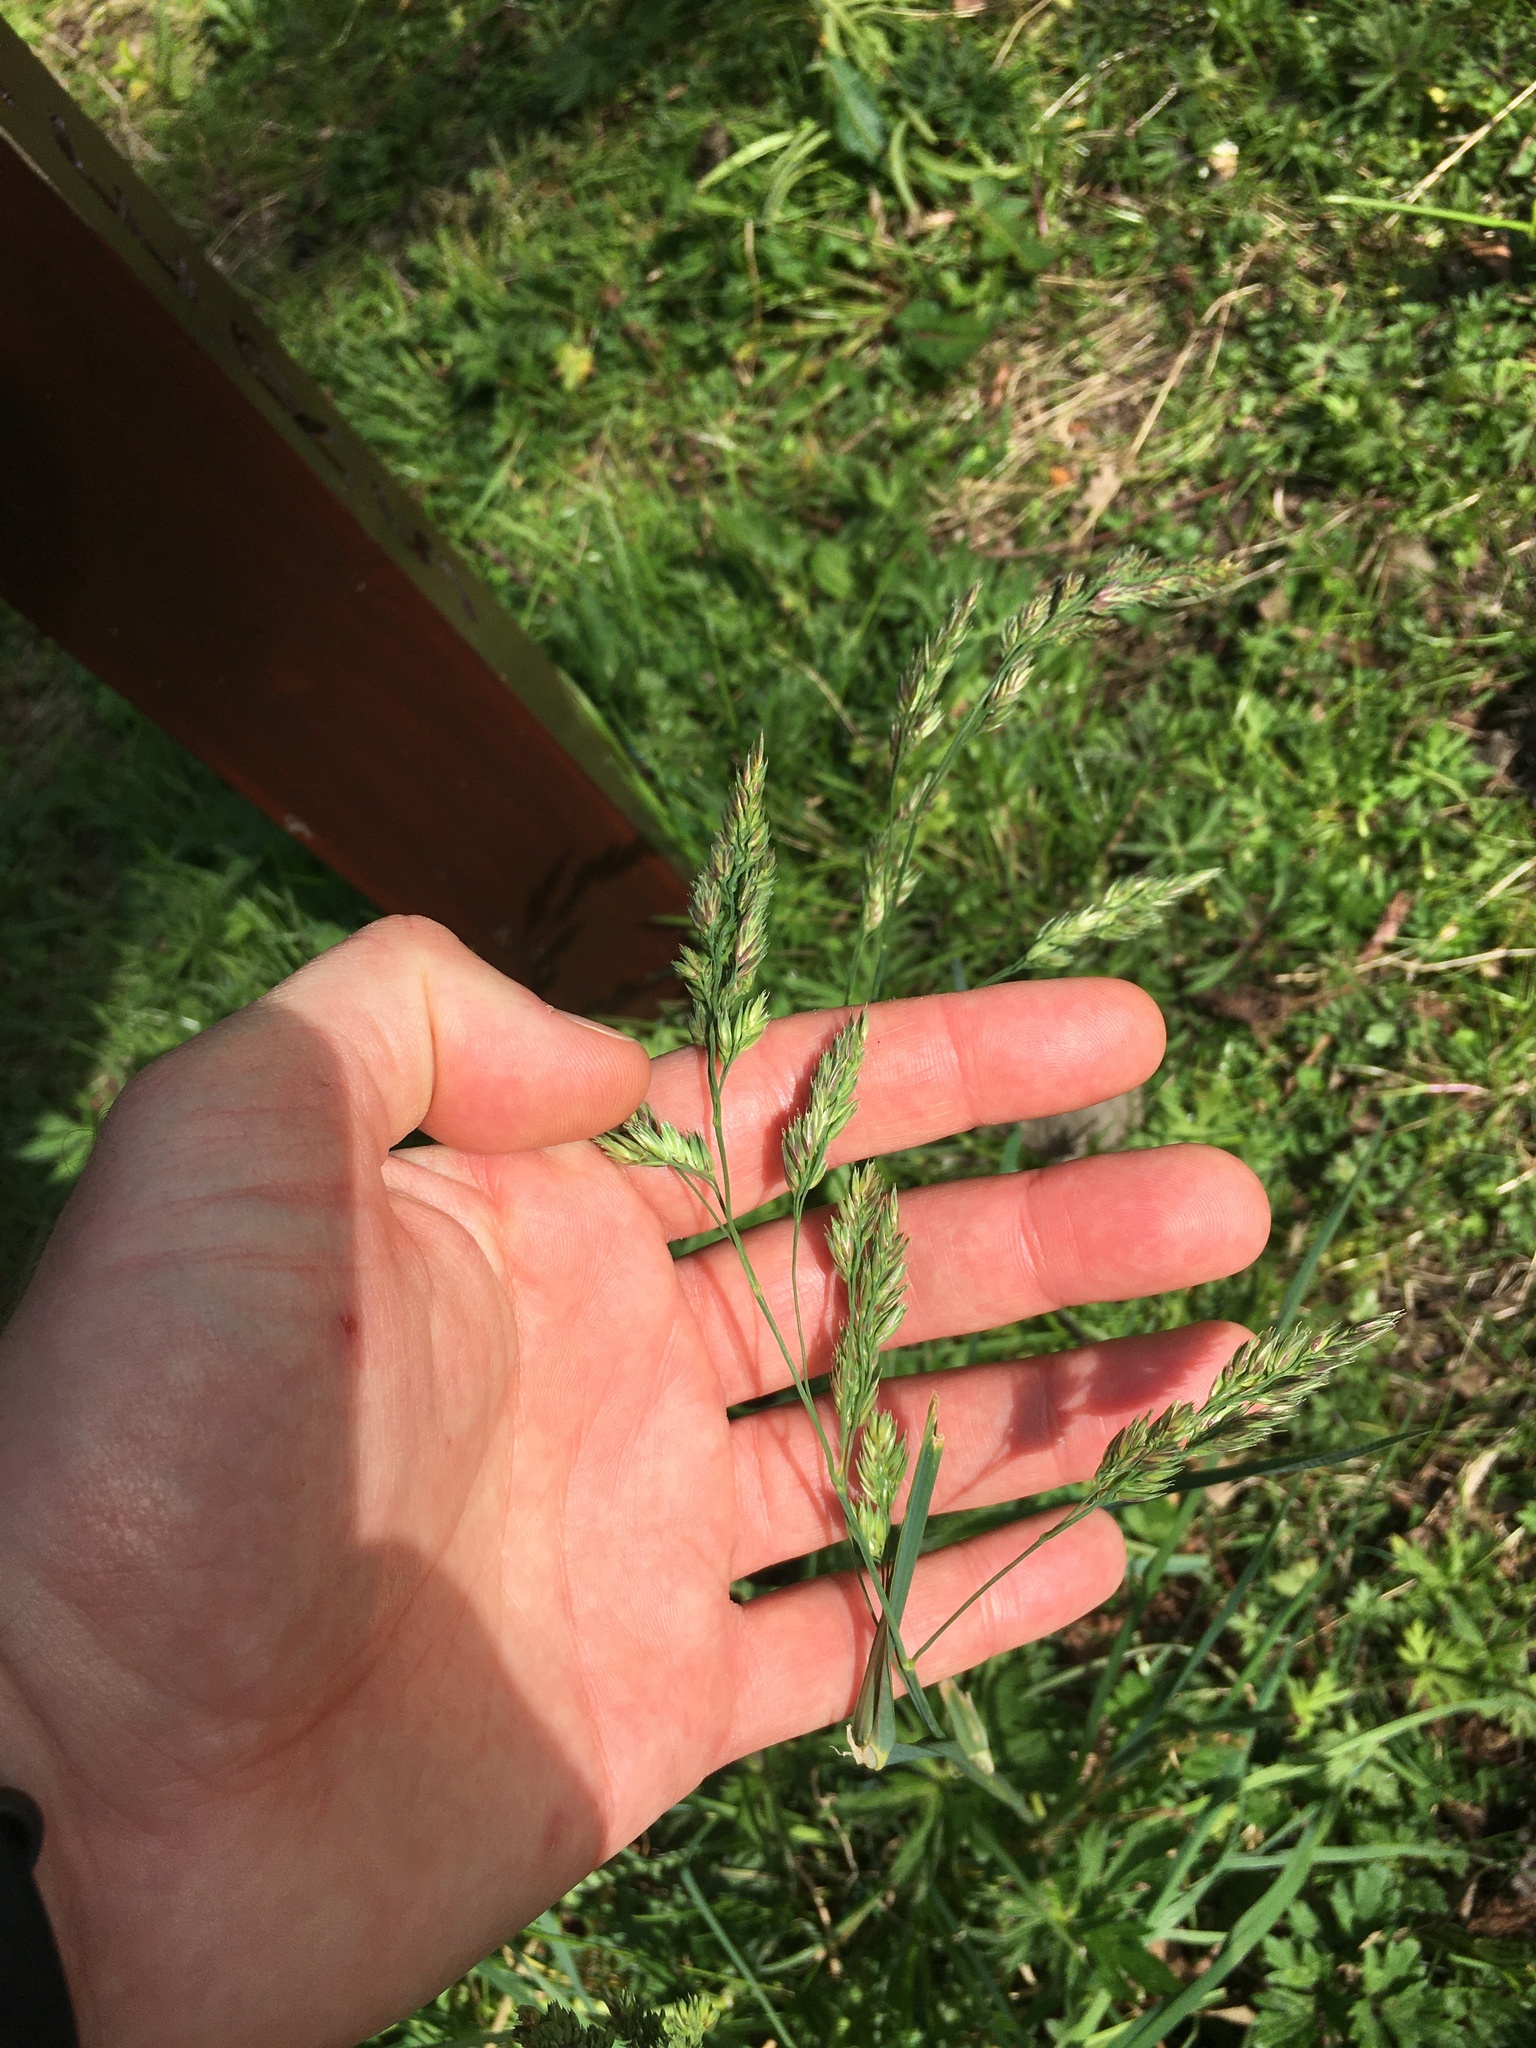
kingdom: Plantae
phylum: Tracheophyta
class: Liliopsida
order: Poales
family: Poaceae
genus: Dactylis
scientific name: Dactylis glomerata
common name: Orchardgrass
